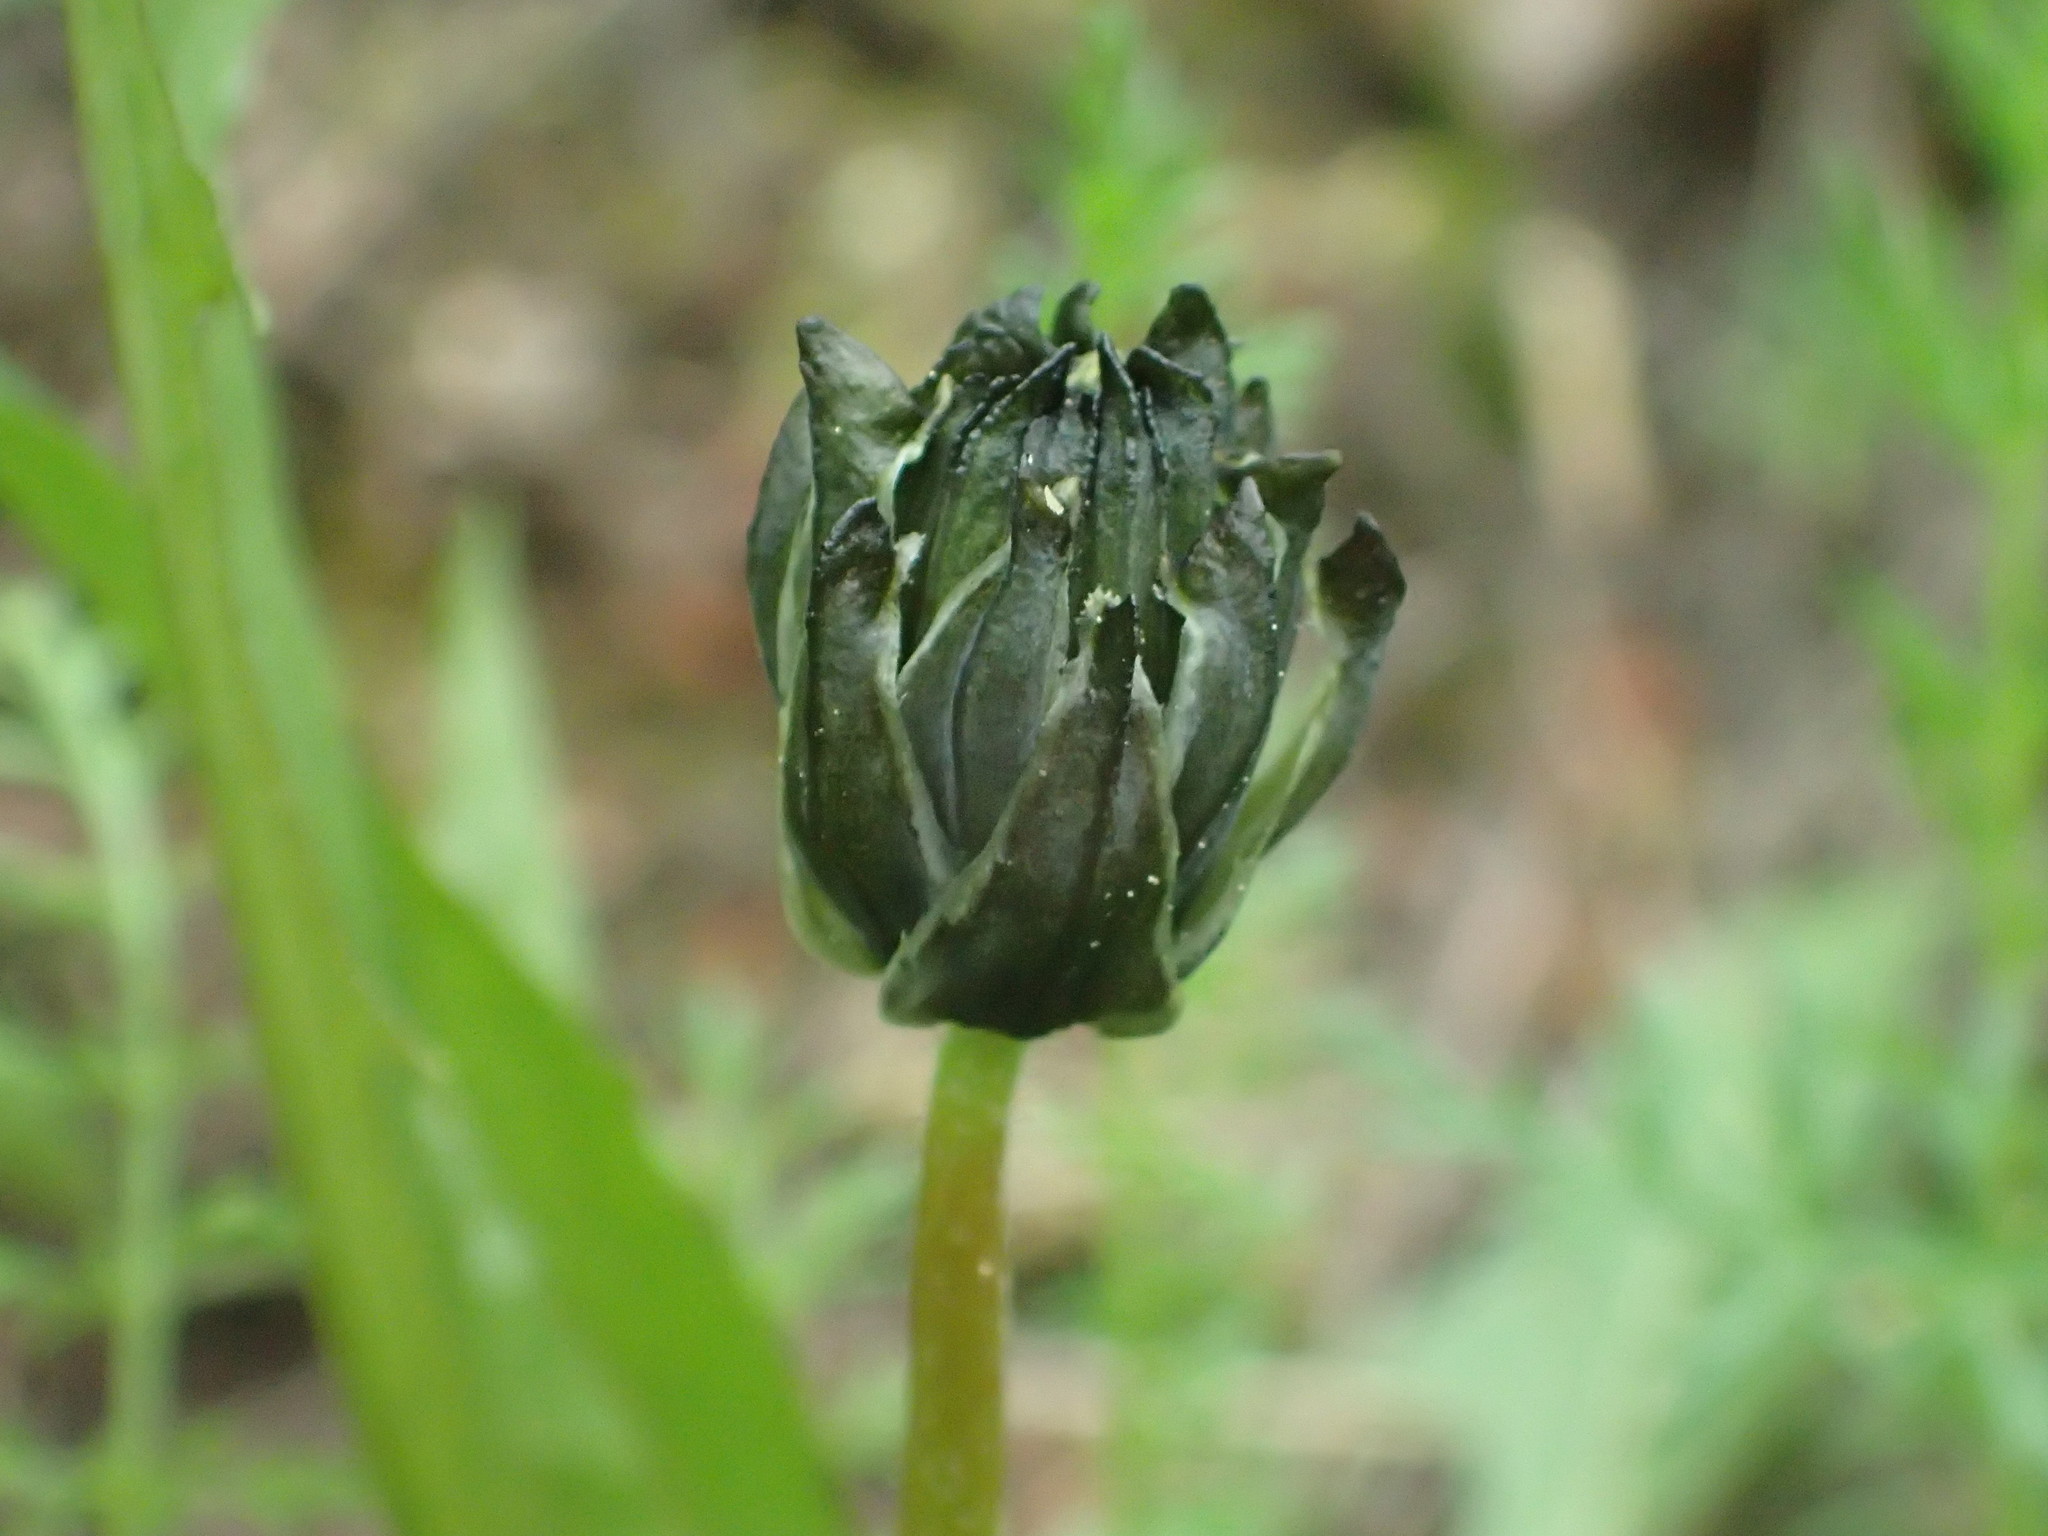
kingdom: Plantae
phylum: Tracheophyta
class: Magnoliopsida
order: Asterales
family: Asteraceae
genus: Taraxacum
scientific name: Taraxacum ceratophorum
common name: Horn-bearing dandelion
